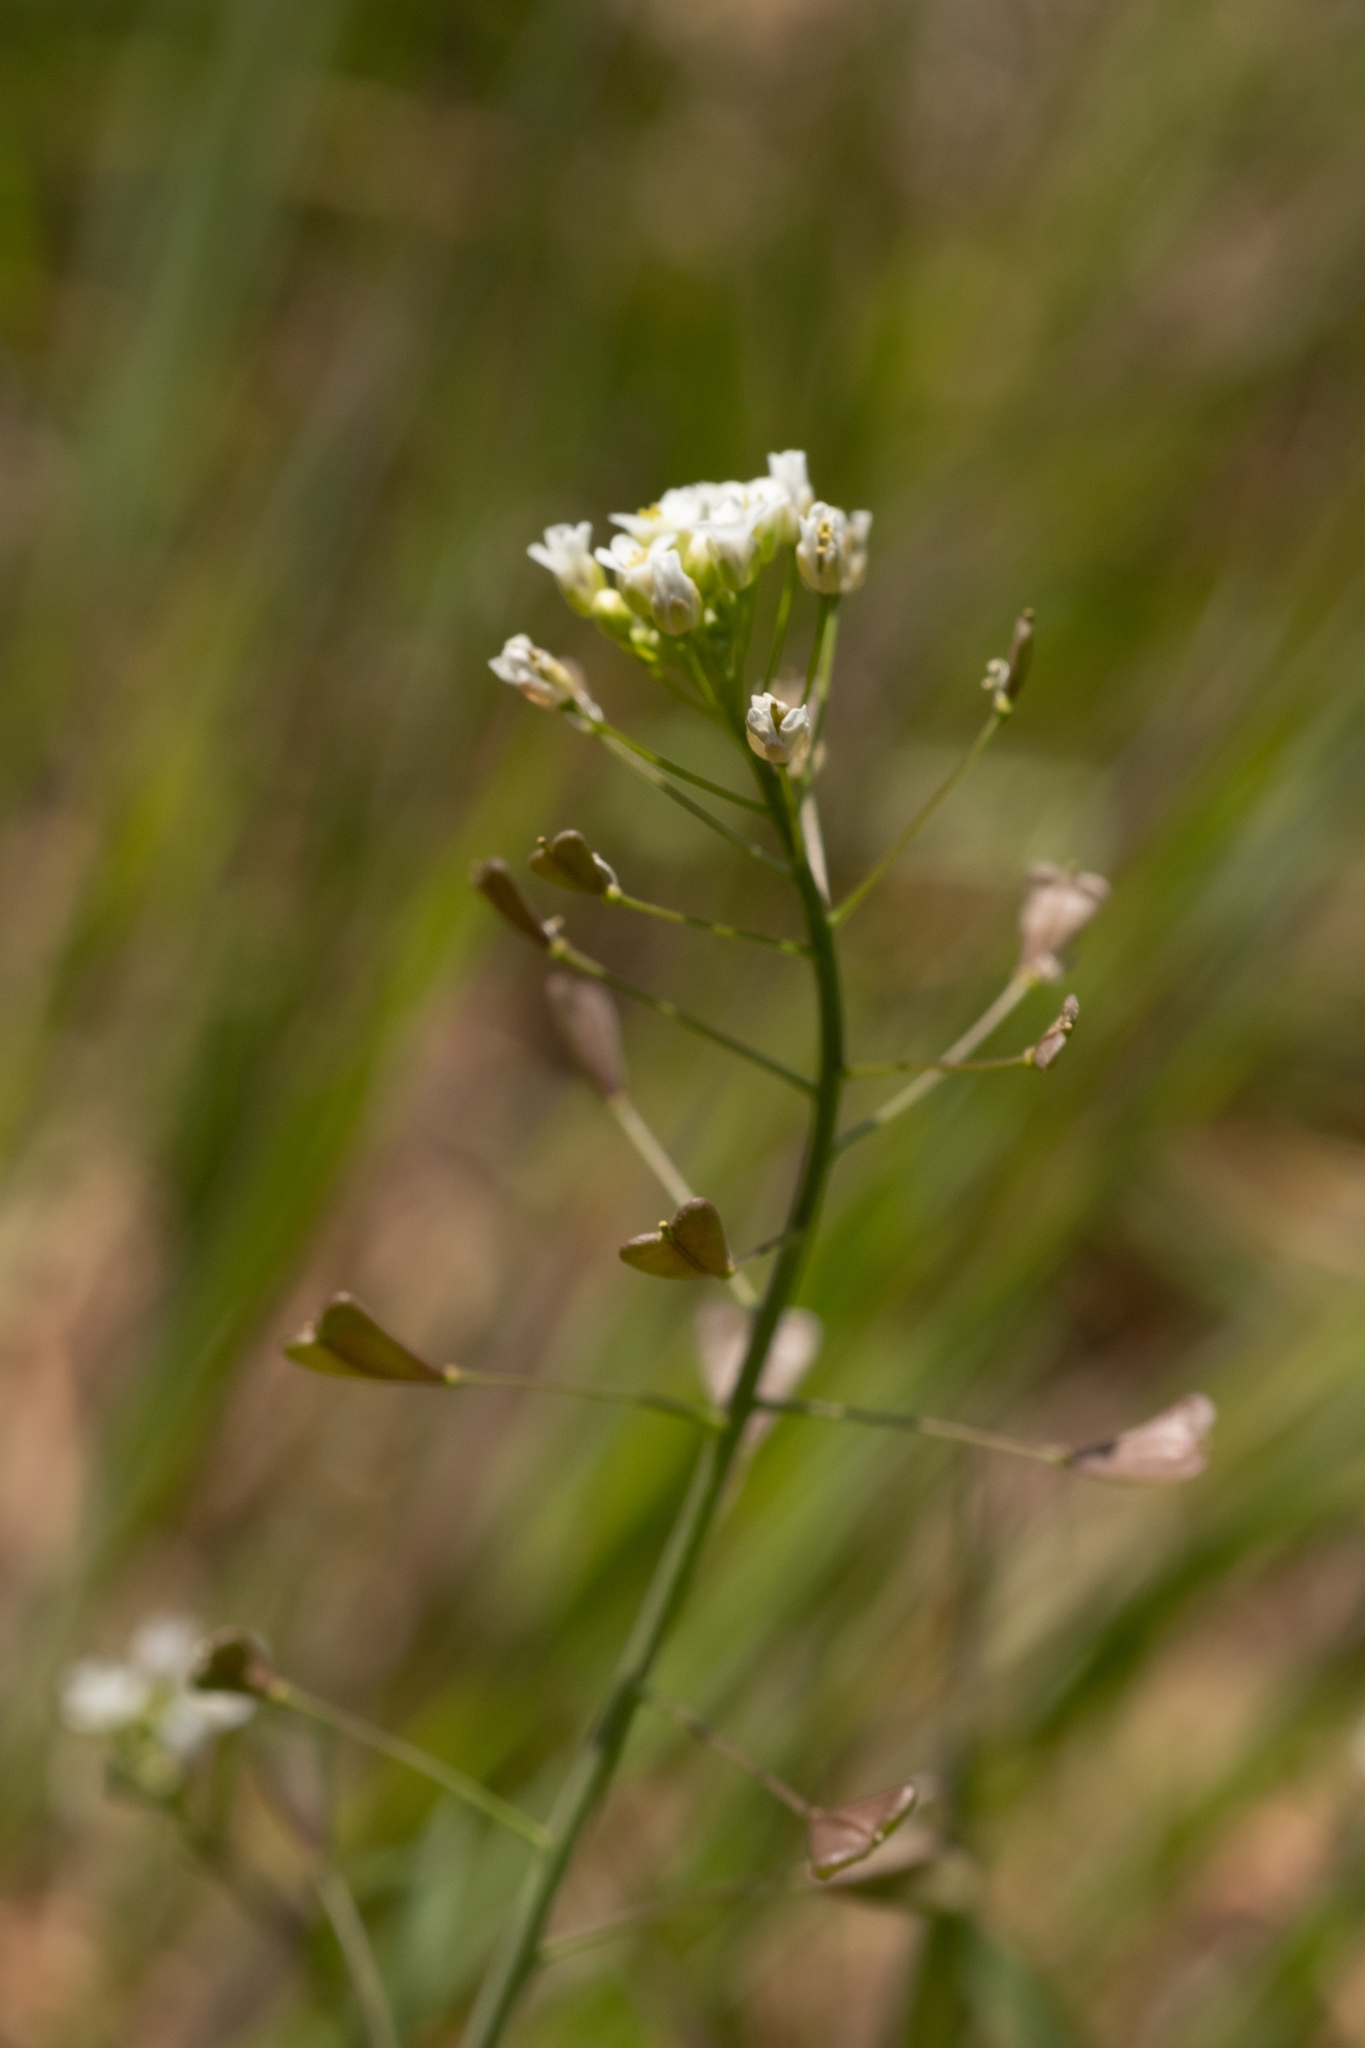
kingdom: Plantae
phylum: Tracheophyta
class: Magnoliopsida
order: Brassicales
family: Brassicaceae
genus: Capsella
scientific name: Capsella bursa-pastoris
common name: Shepherd's purse
